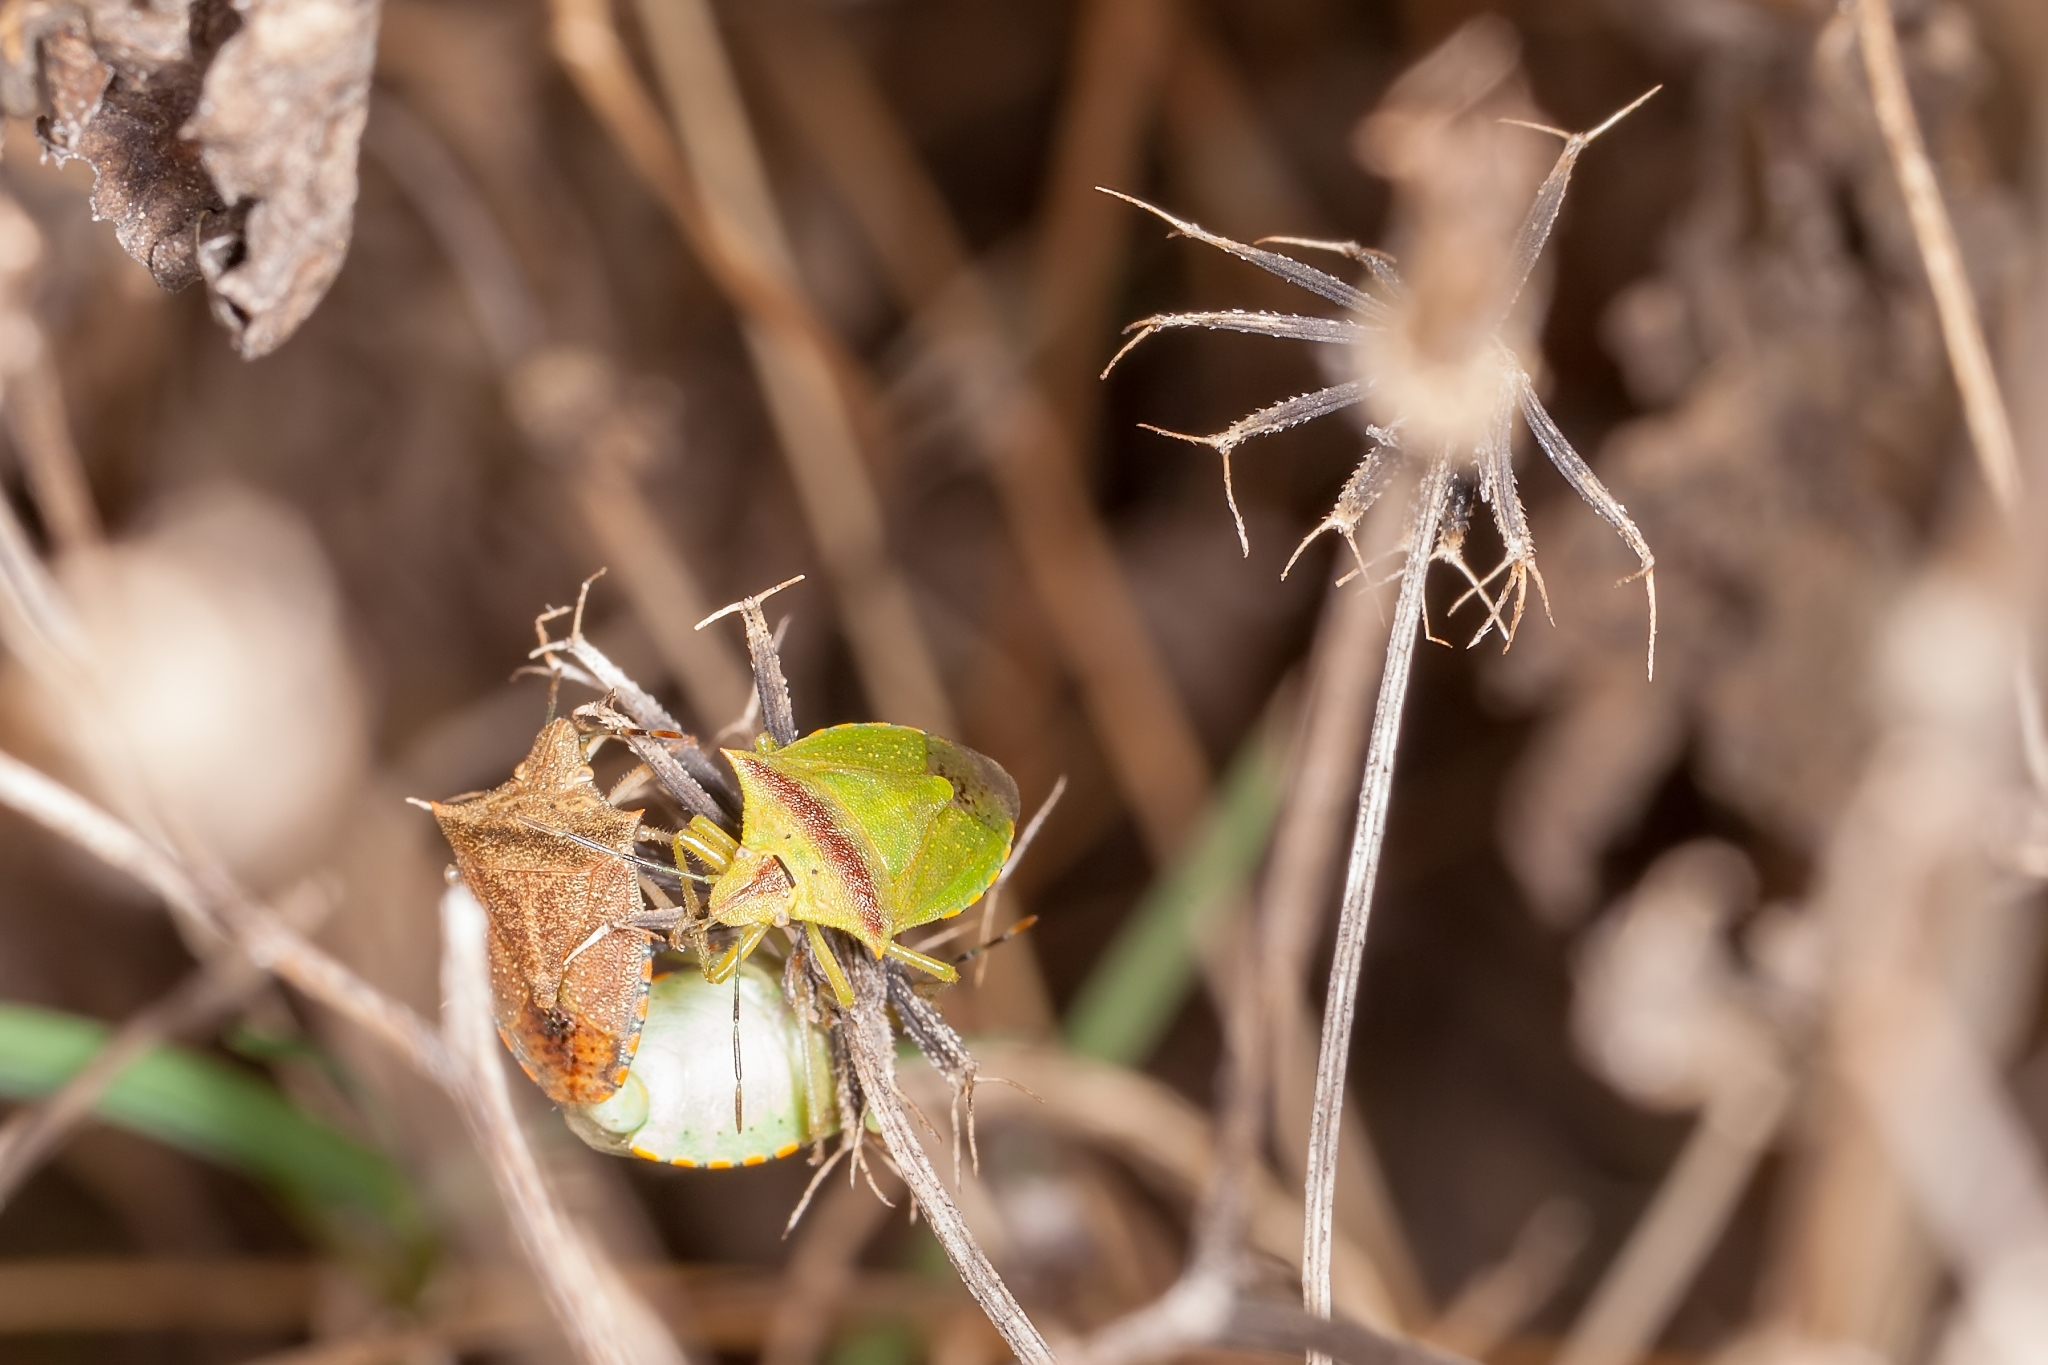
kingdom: Animalia
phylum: Arthropoda
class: Insecta
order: Hemiptera
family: Pentatomidae
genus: Thyanta
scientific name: Thyanta perditor
